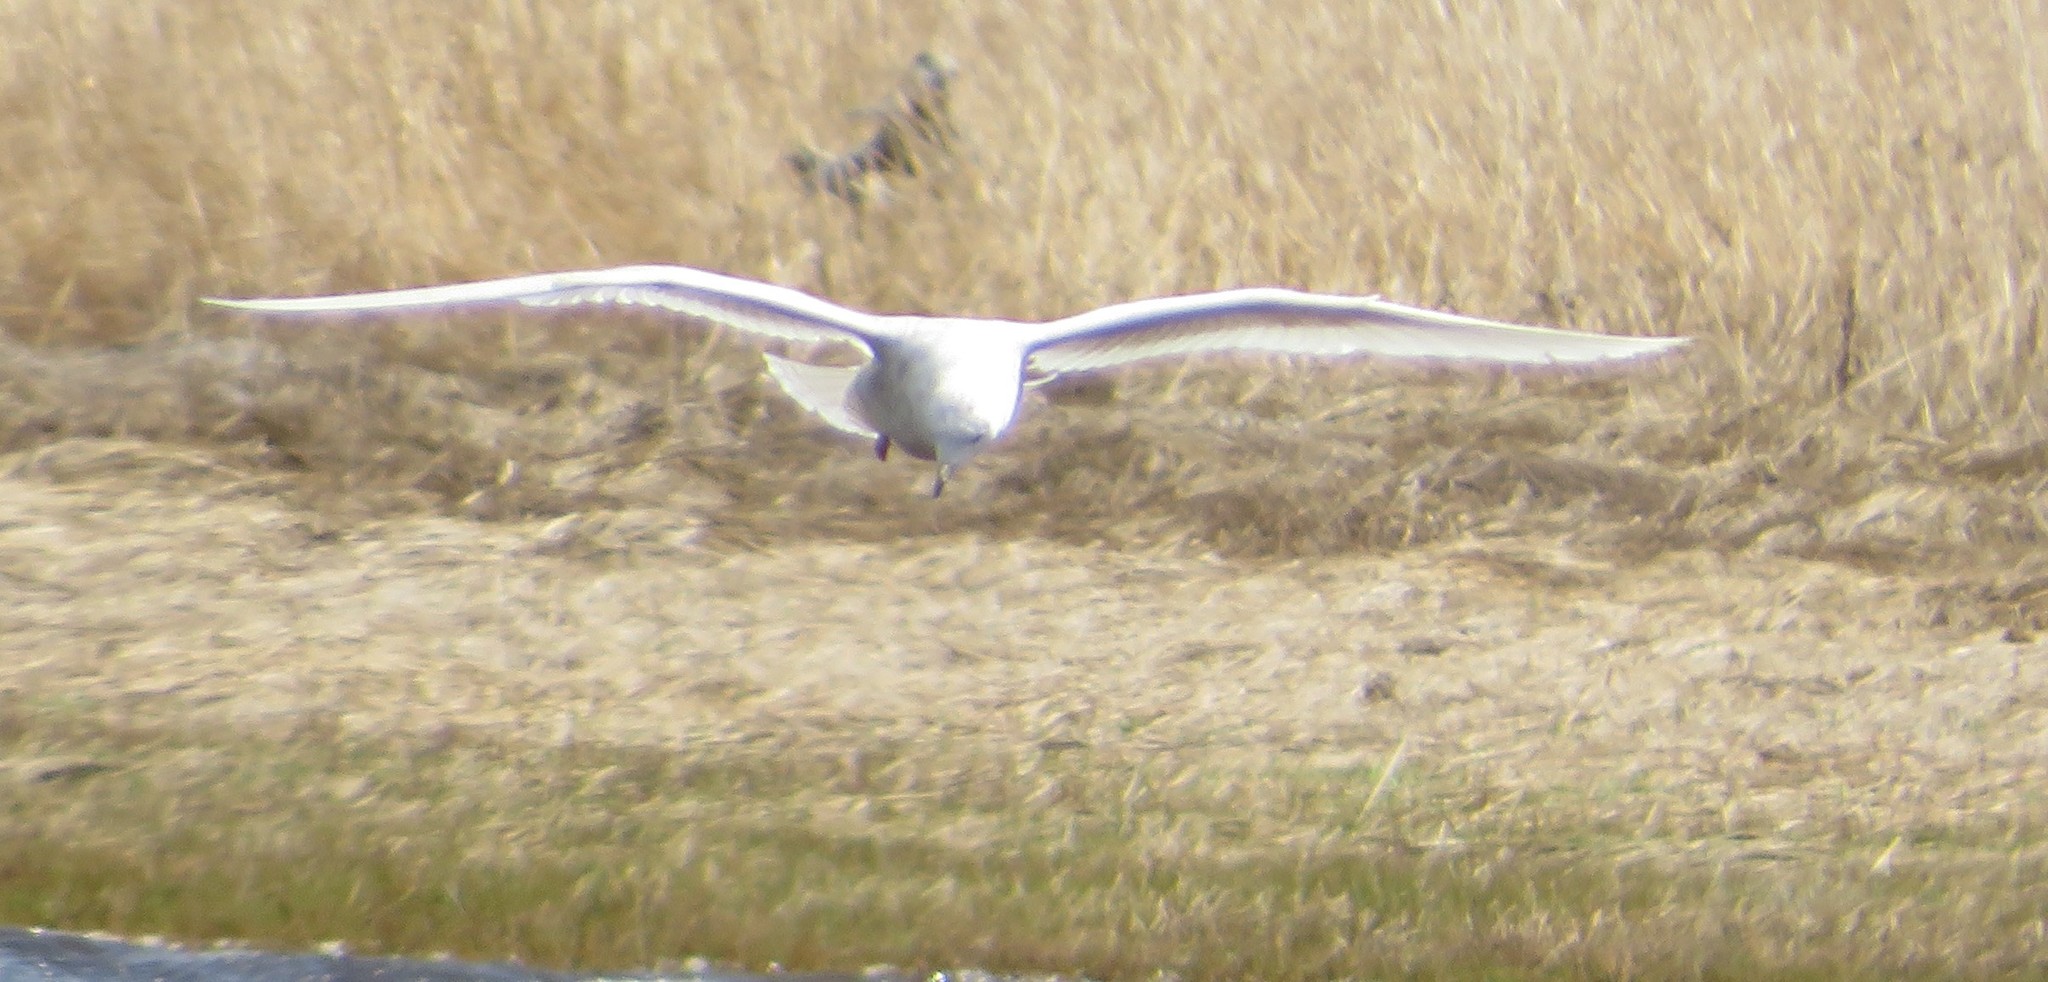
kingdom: Animalia
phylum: Chordata
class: Aves
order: Charadriiformes
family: Laridae
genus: Larus
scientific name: Larus glaucoides
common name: Iceland gull
